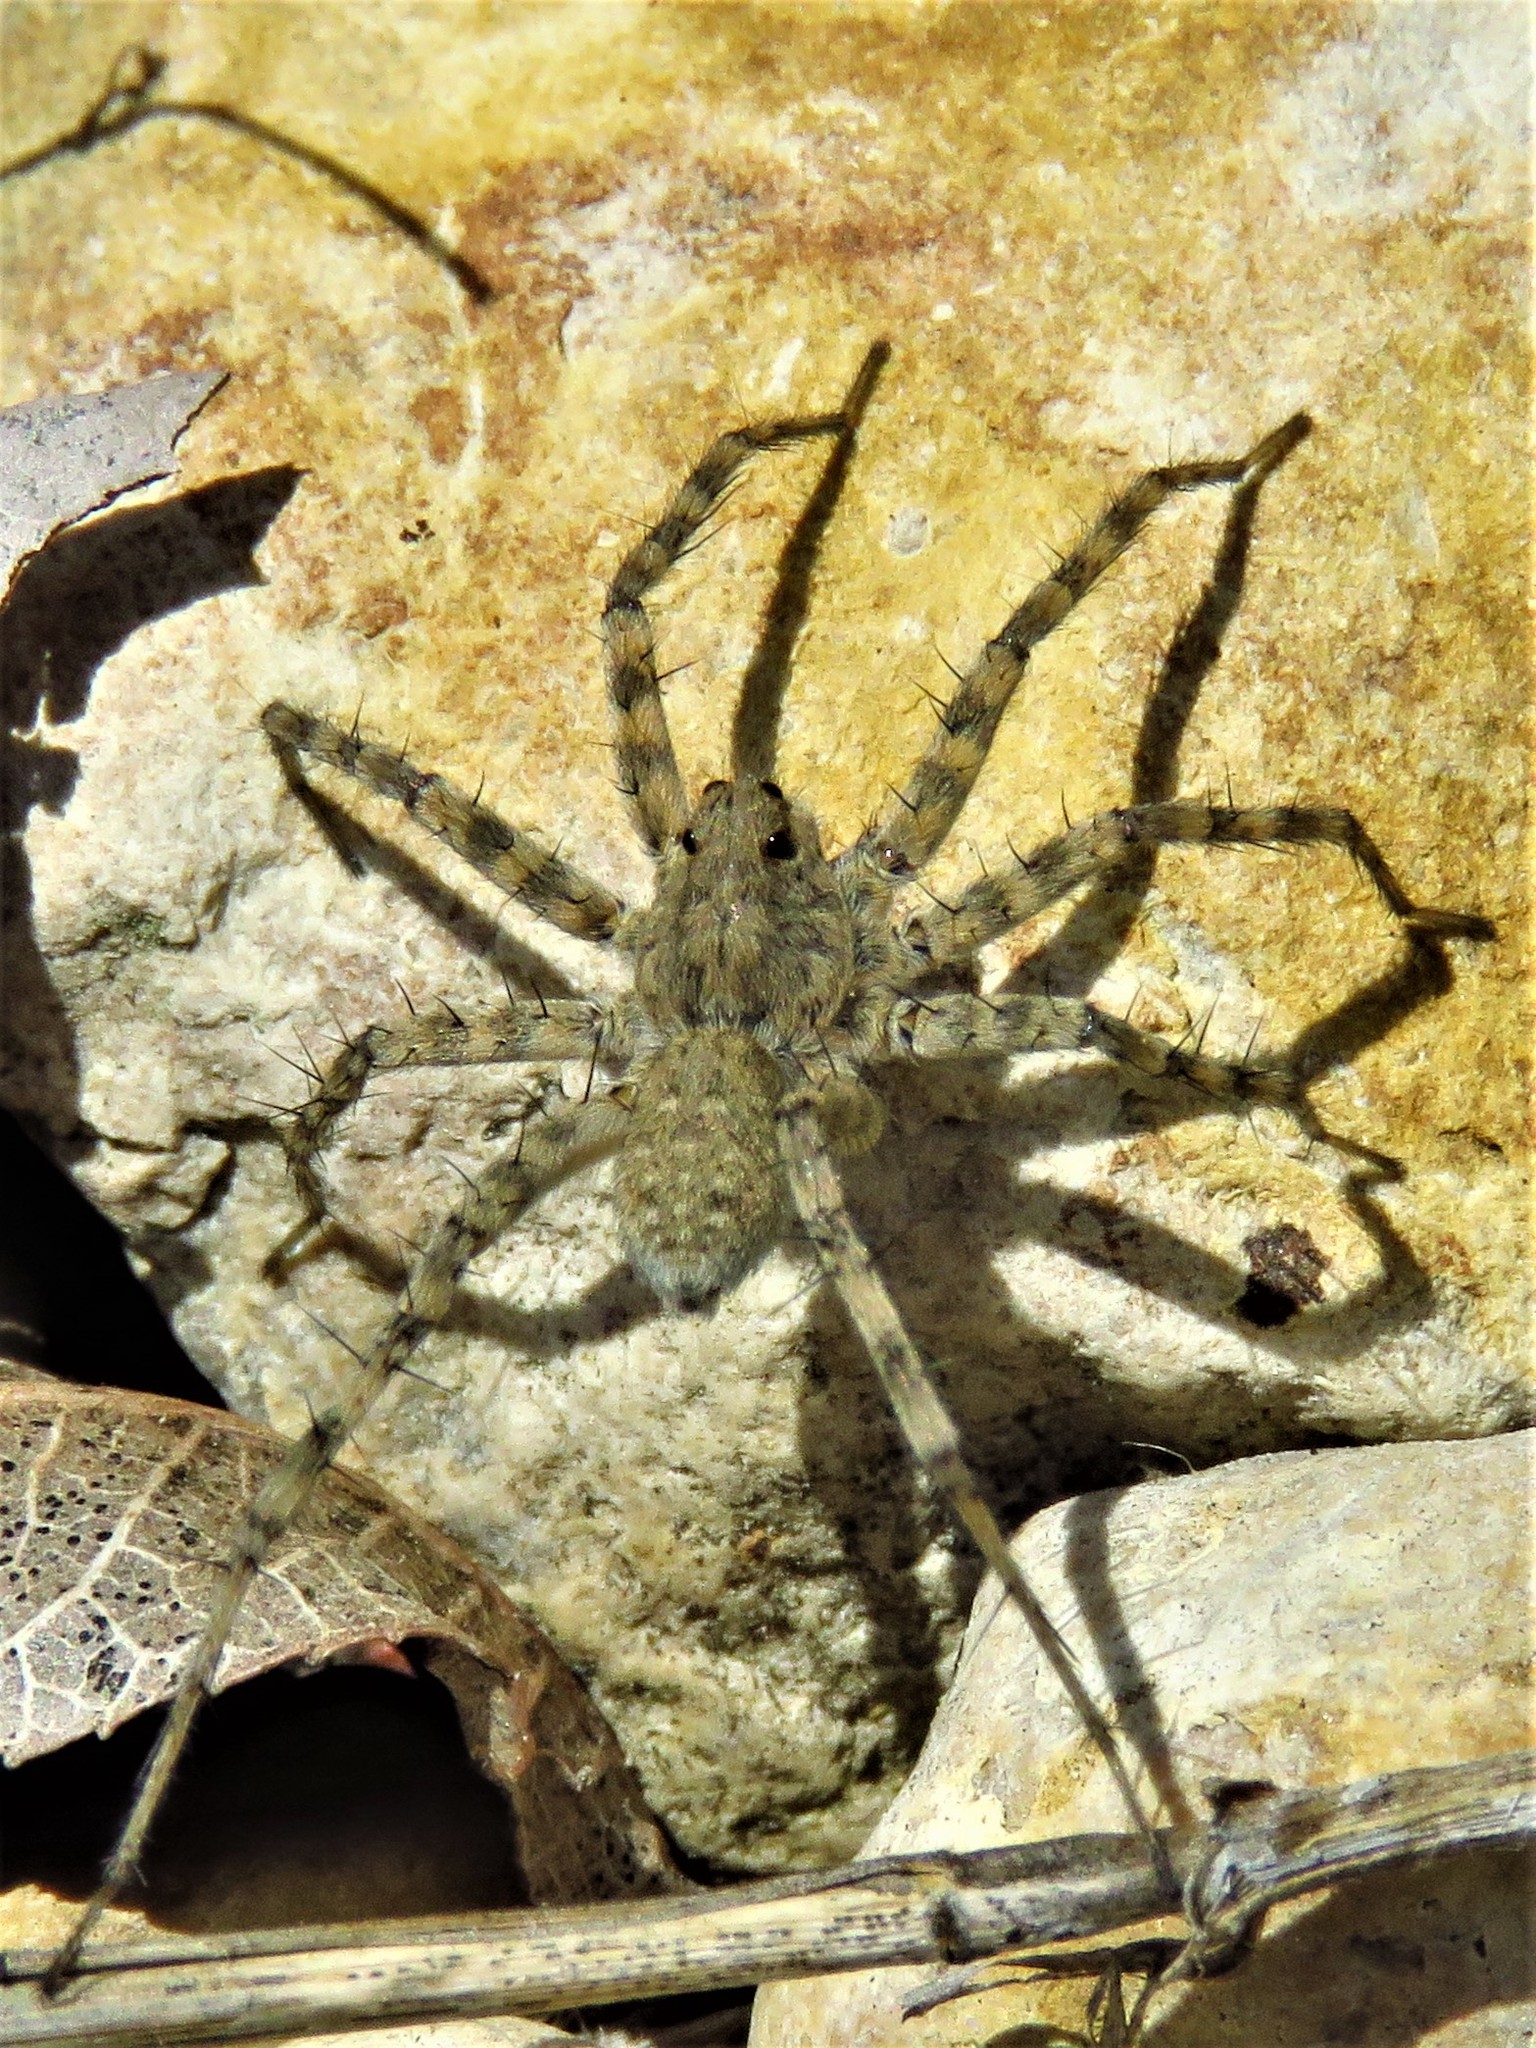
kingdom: Animalia
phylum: Arthropoda
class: Arachnida
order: Araneae
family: Lycosidae
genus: Pardosa
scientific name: Pardosa mercurialis
